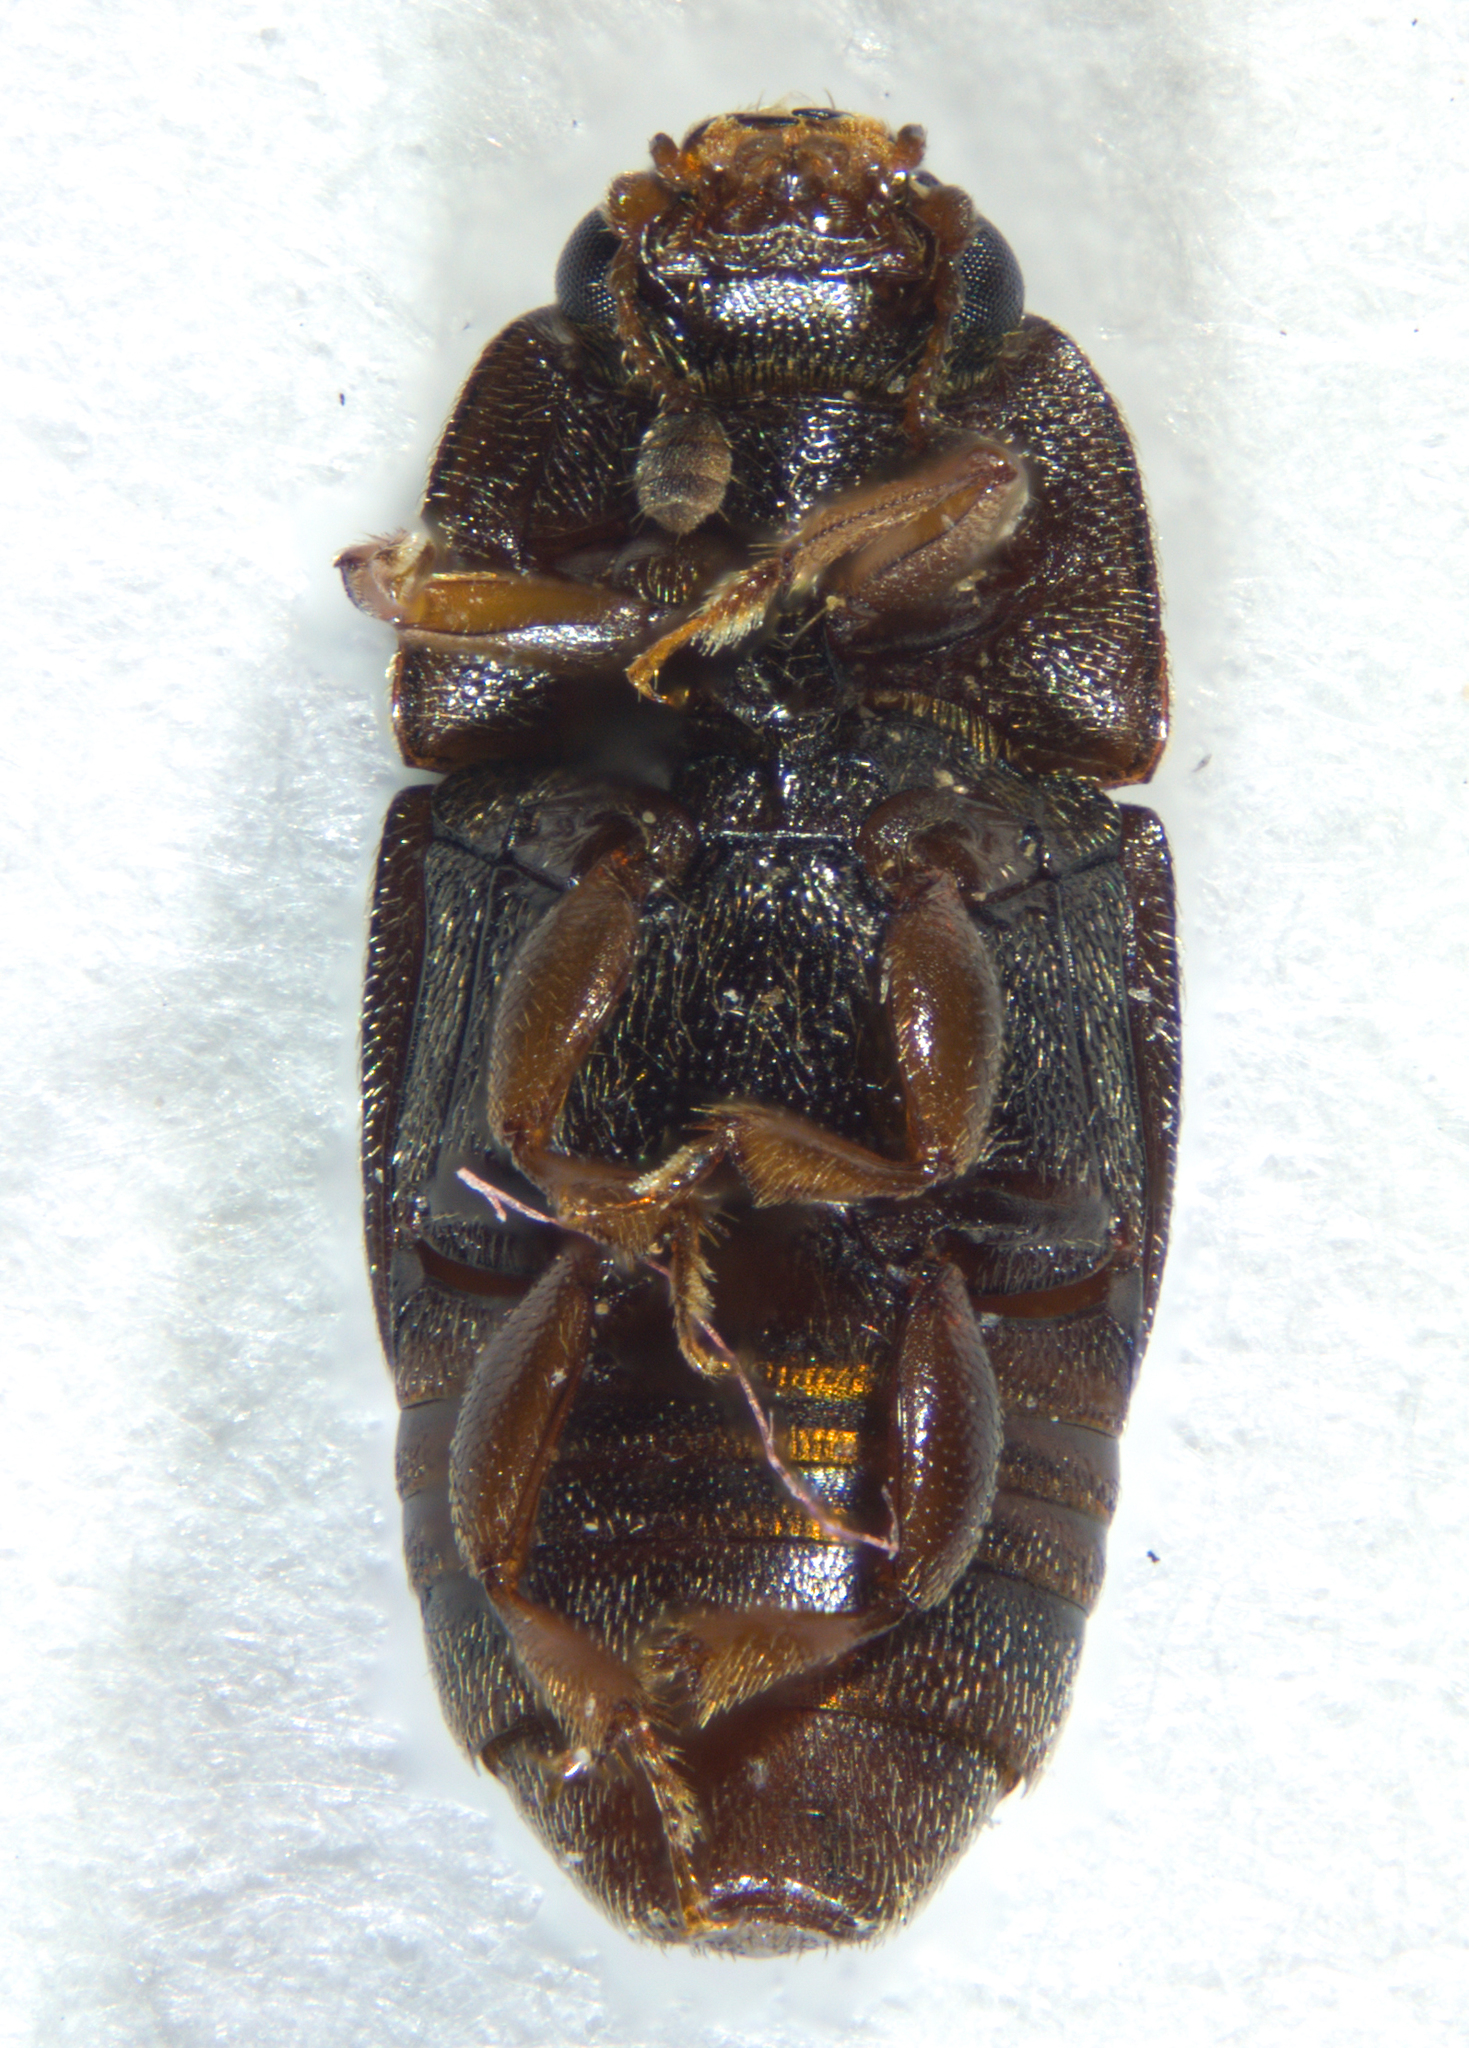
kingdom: Animalia
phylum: Arthropoda
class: Insecta
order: Coleoptera
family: Nitidulidae
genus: Carpophilus
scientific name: Carpophilus hemipterus
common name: Dried fruit beetle
